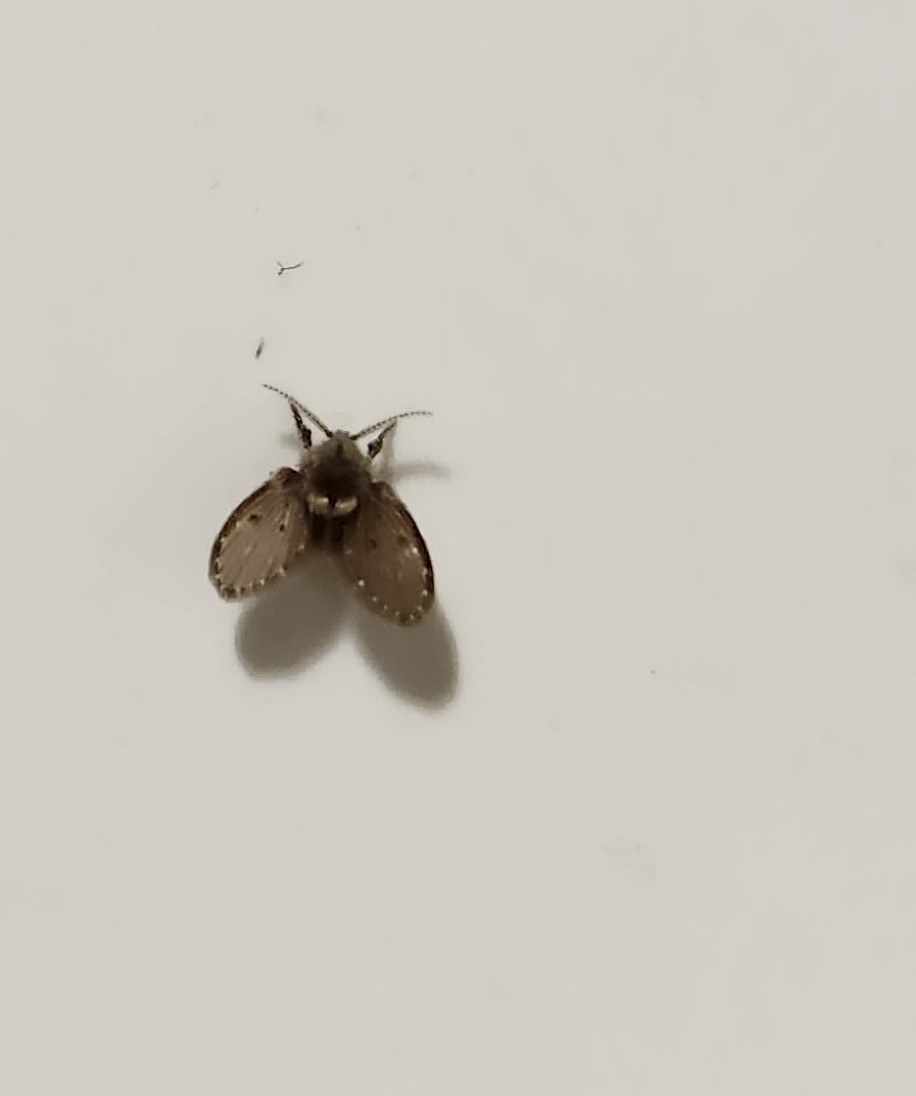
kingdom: Animalia
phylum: Arthropoda
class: Insecta
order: Diptera
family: Psychodidae
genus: Clogmia
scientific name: Clogmia albipunctatus
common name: White-spotted moth fly
